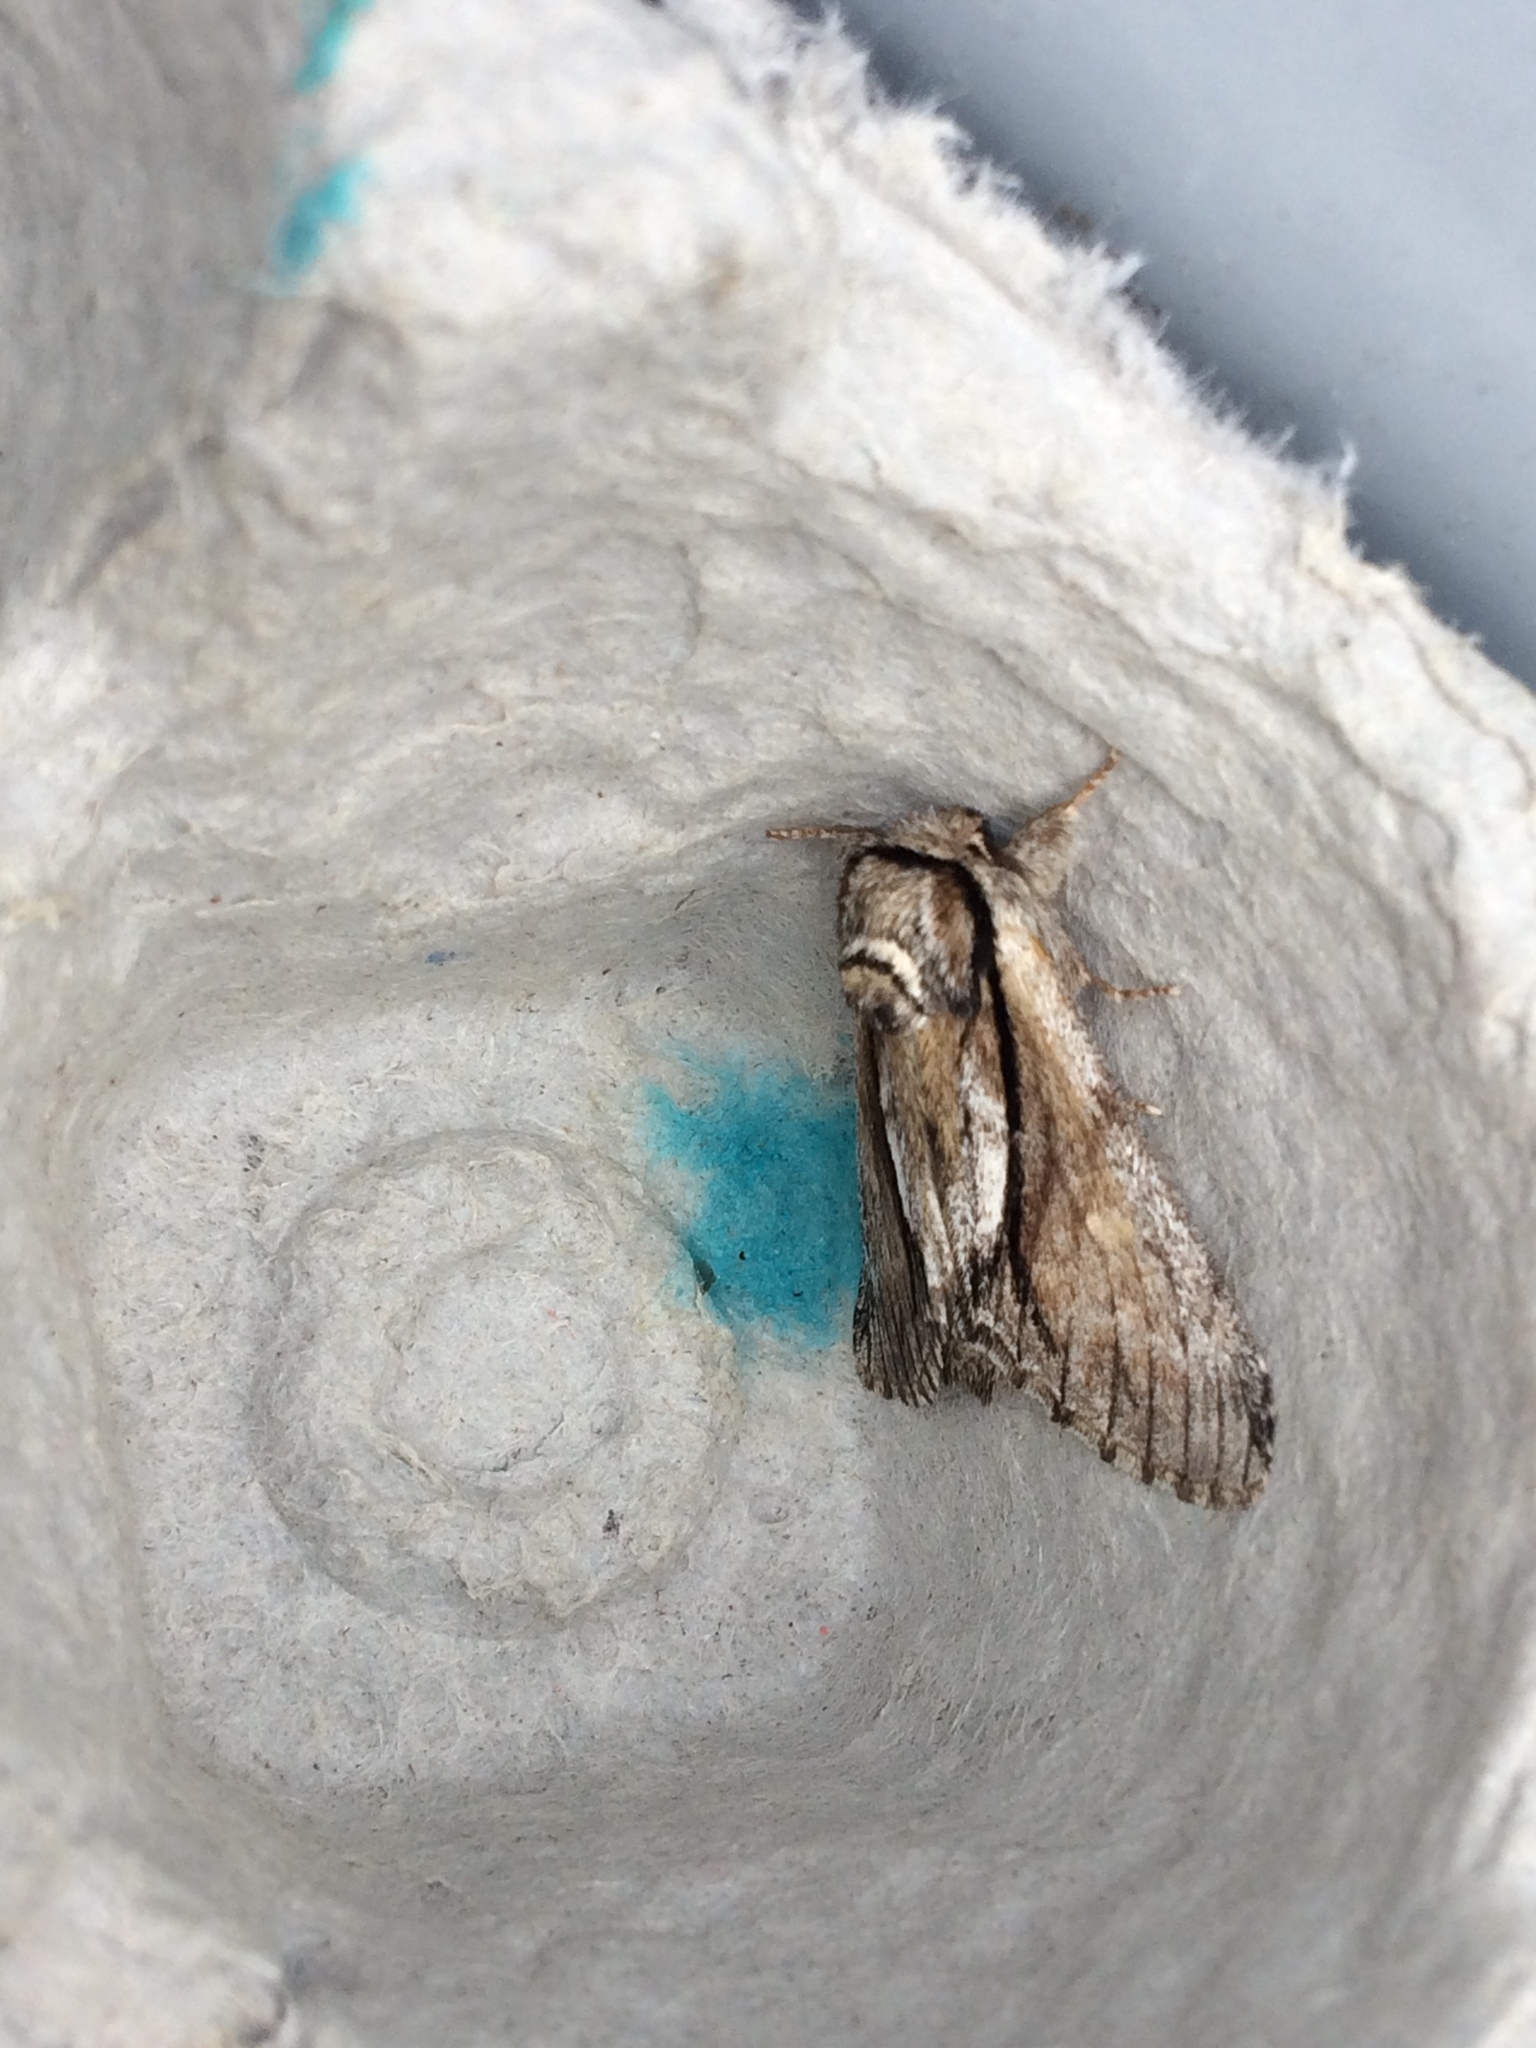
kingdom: Animalia
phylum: Arthropoda
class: Insecta
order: Lepidoptera
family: Notodontidae
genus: Paradrymonia
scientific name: Paradrymonia vittata
